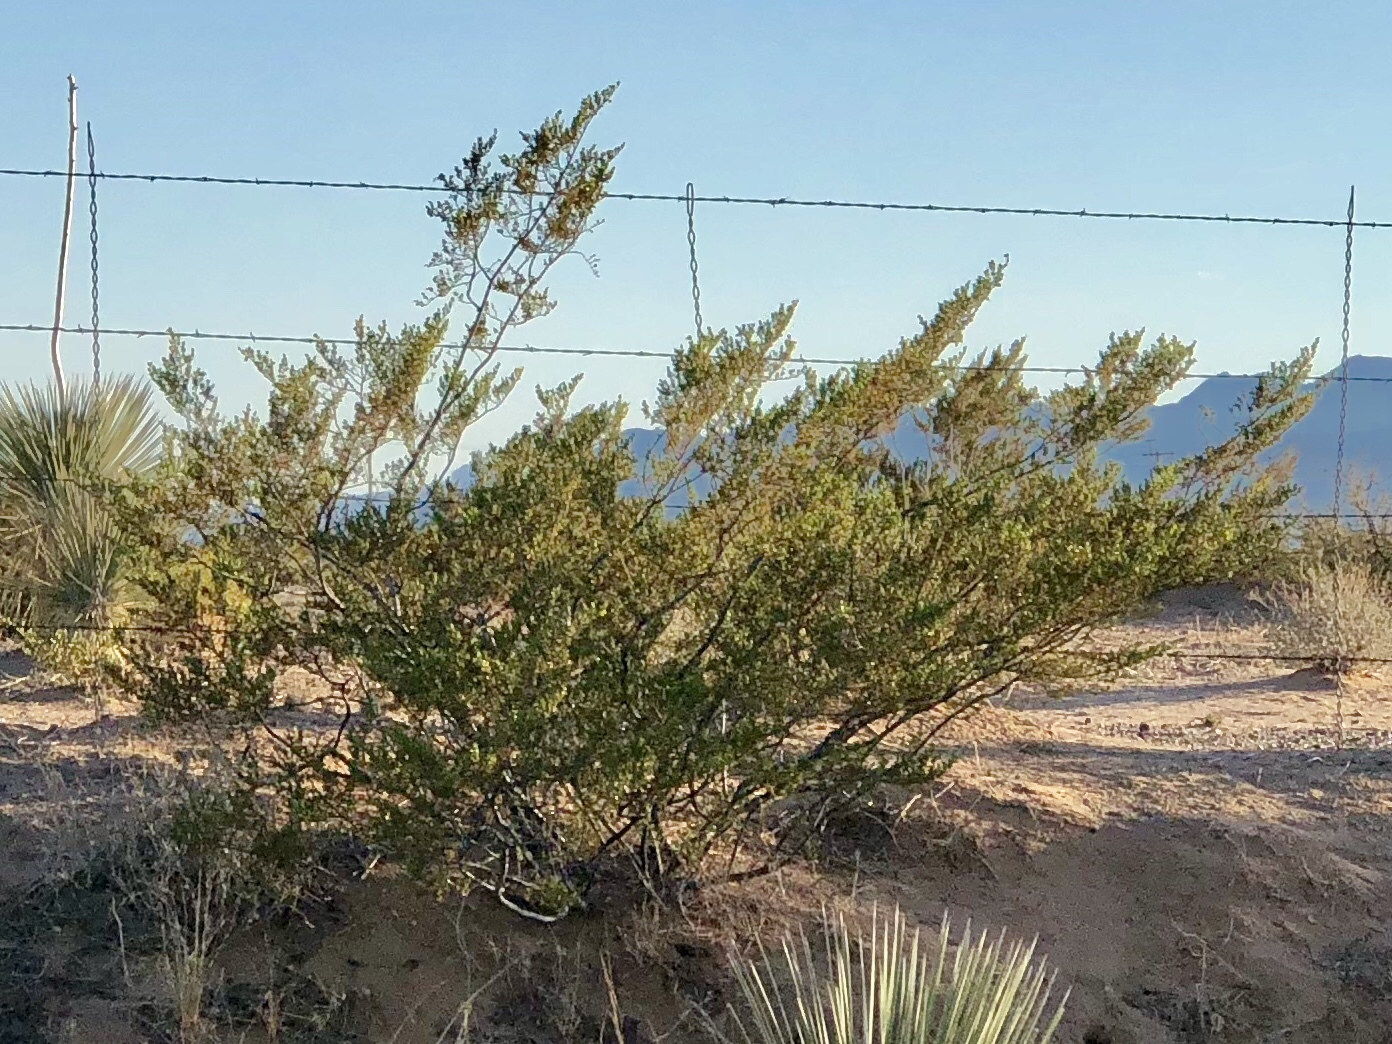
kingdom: Plantae
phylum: Tracheophyta
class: Magnoliopsida
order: Zygophyllales
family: Zygophyllaceae
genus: Larrea
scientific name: Larrea tridentata
